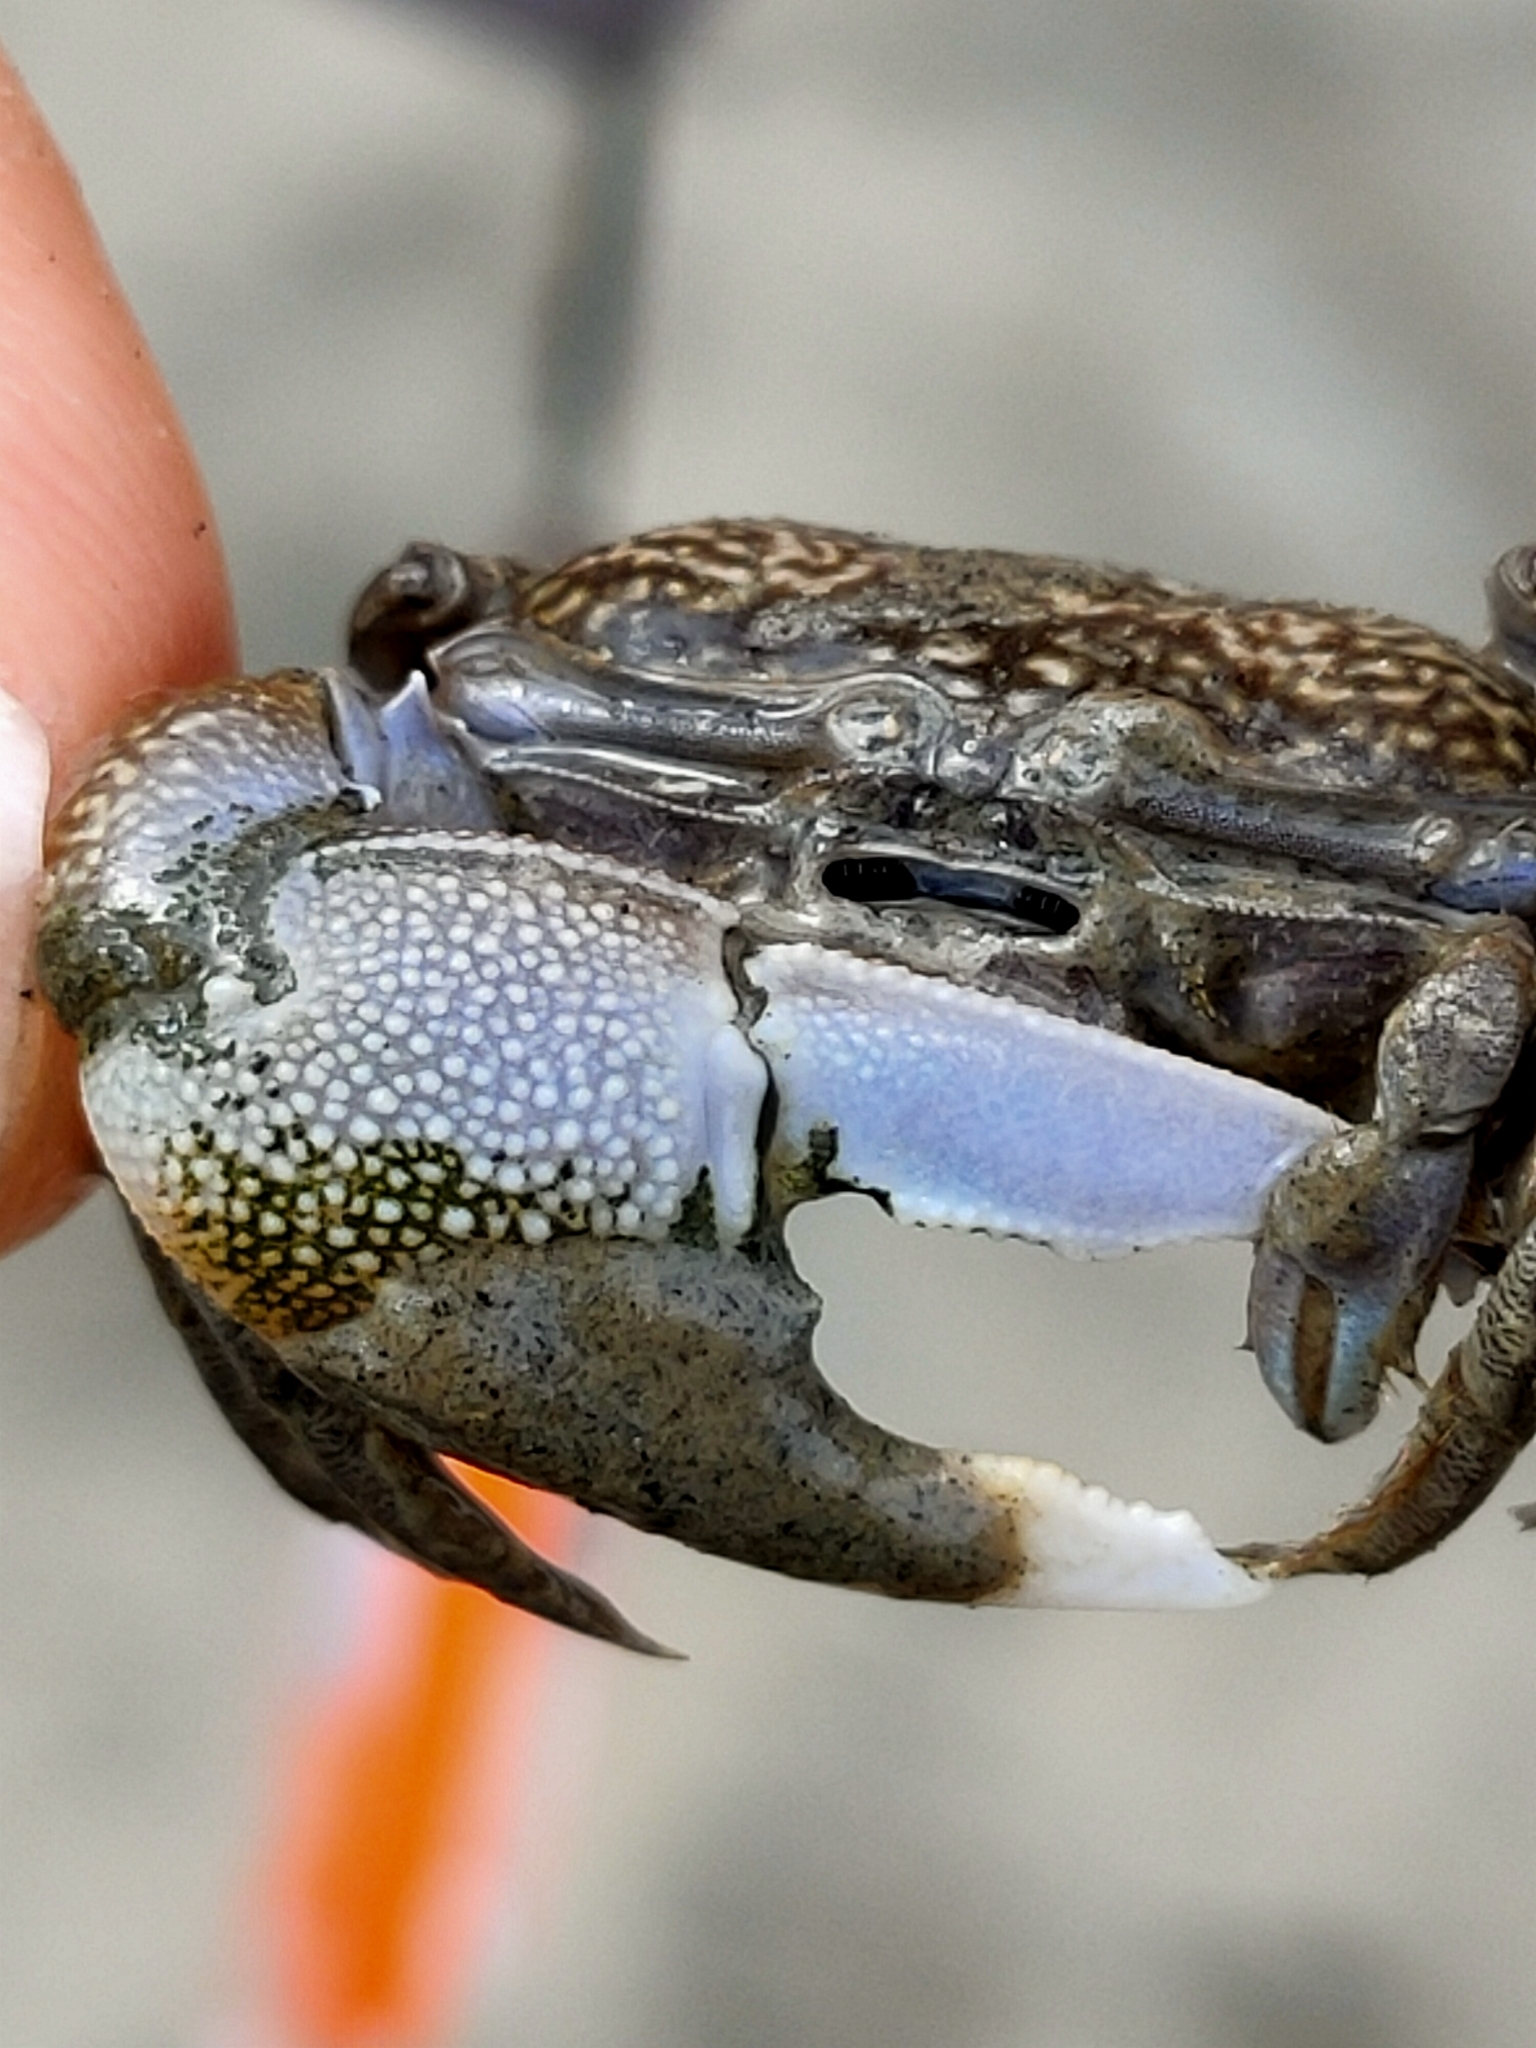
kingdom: Animalia
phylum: Arthropoda
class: Malacostraca
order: Decapoda
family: Ocypodidae
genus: Gelasimus
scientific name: Gelasimus borealis
